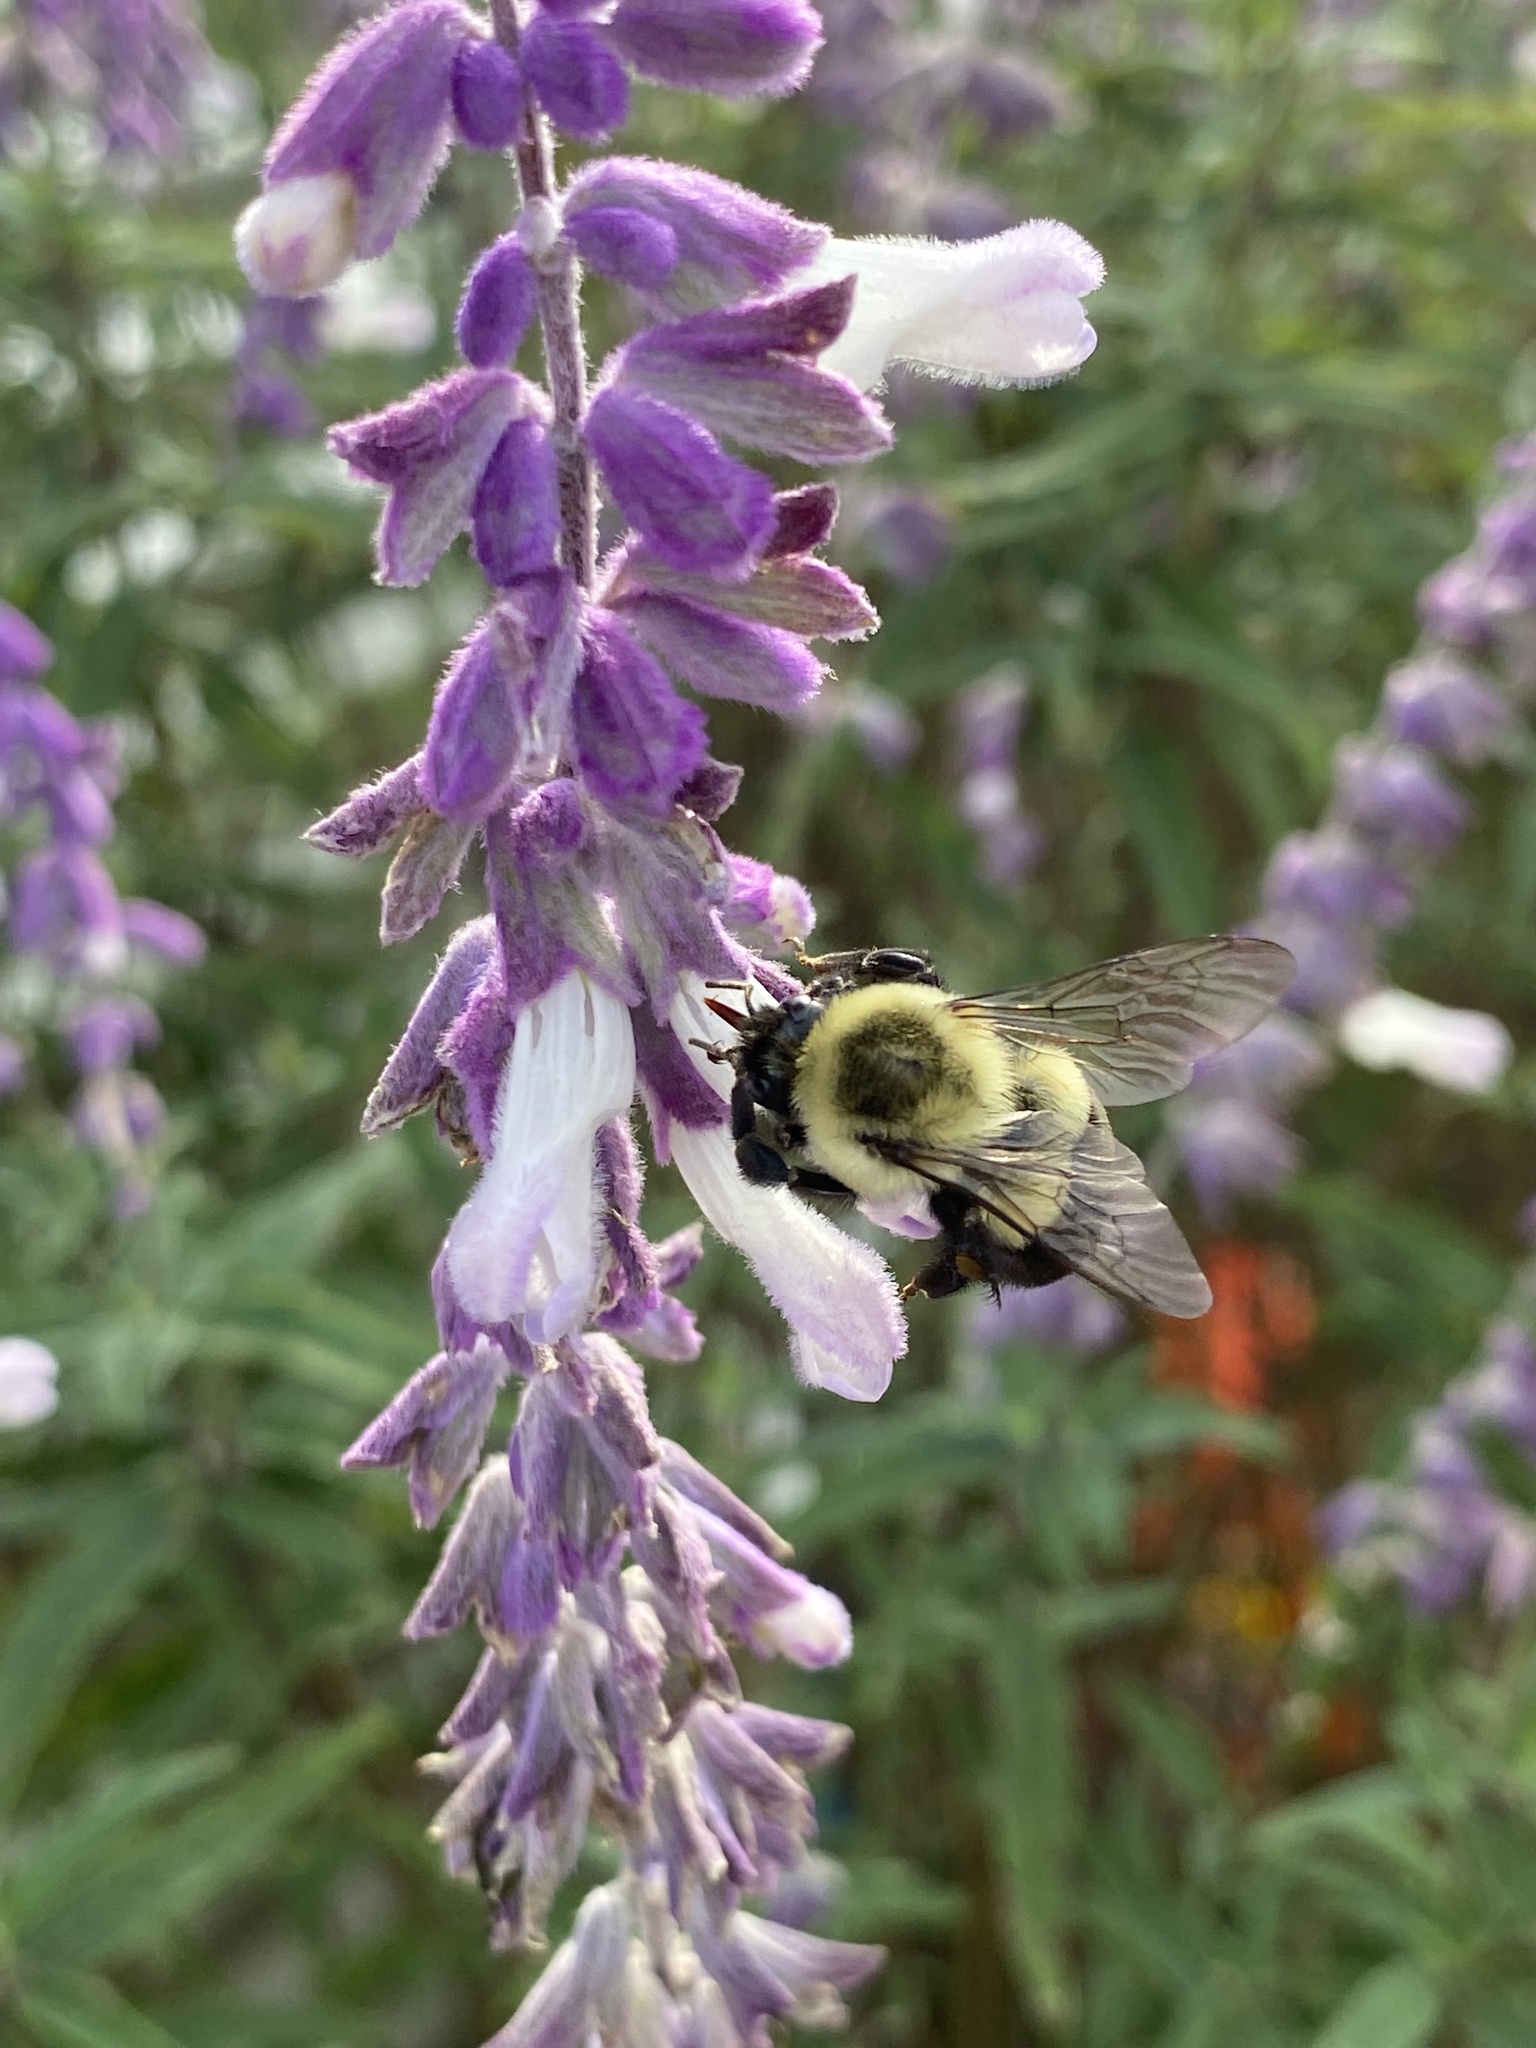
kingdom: Animalia
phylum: Arthropoda
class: Insecta
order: Hymenoptera
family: Apidae
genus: Bombus
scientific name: Bombus impatiens
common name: Common eastern bumble bee
